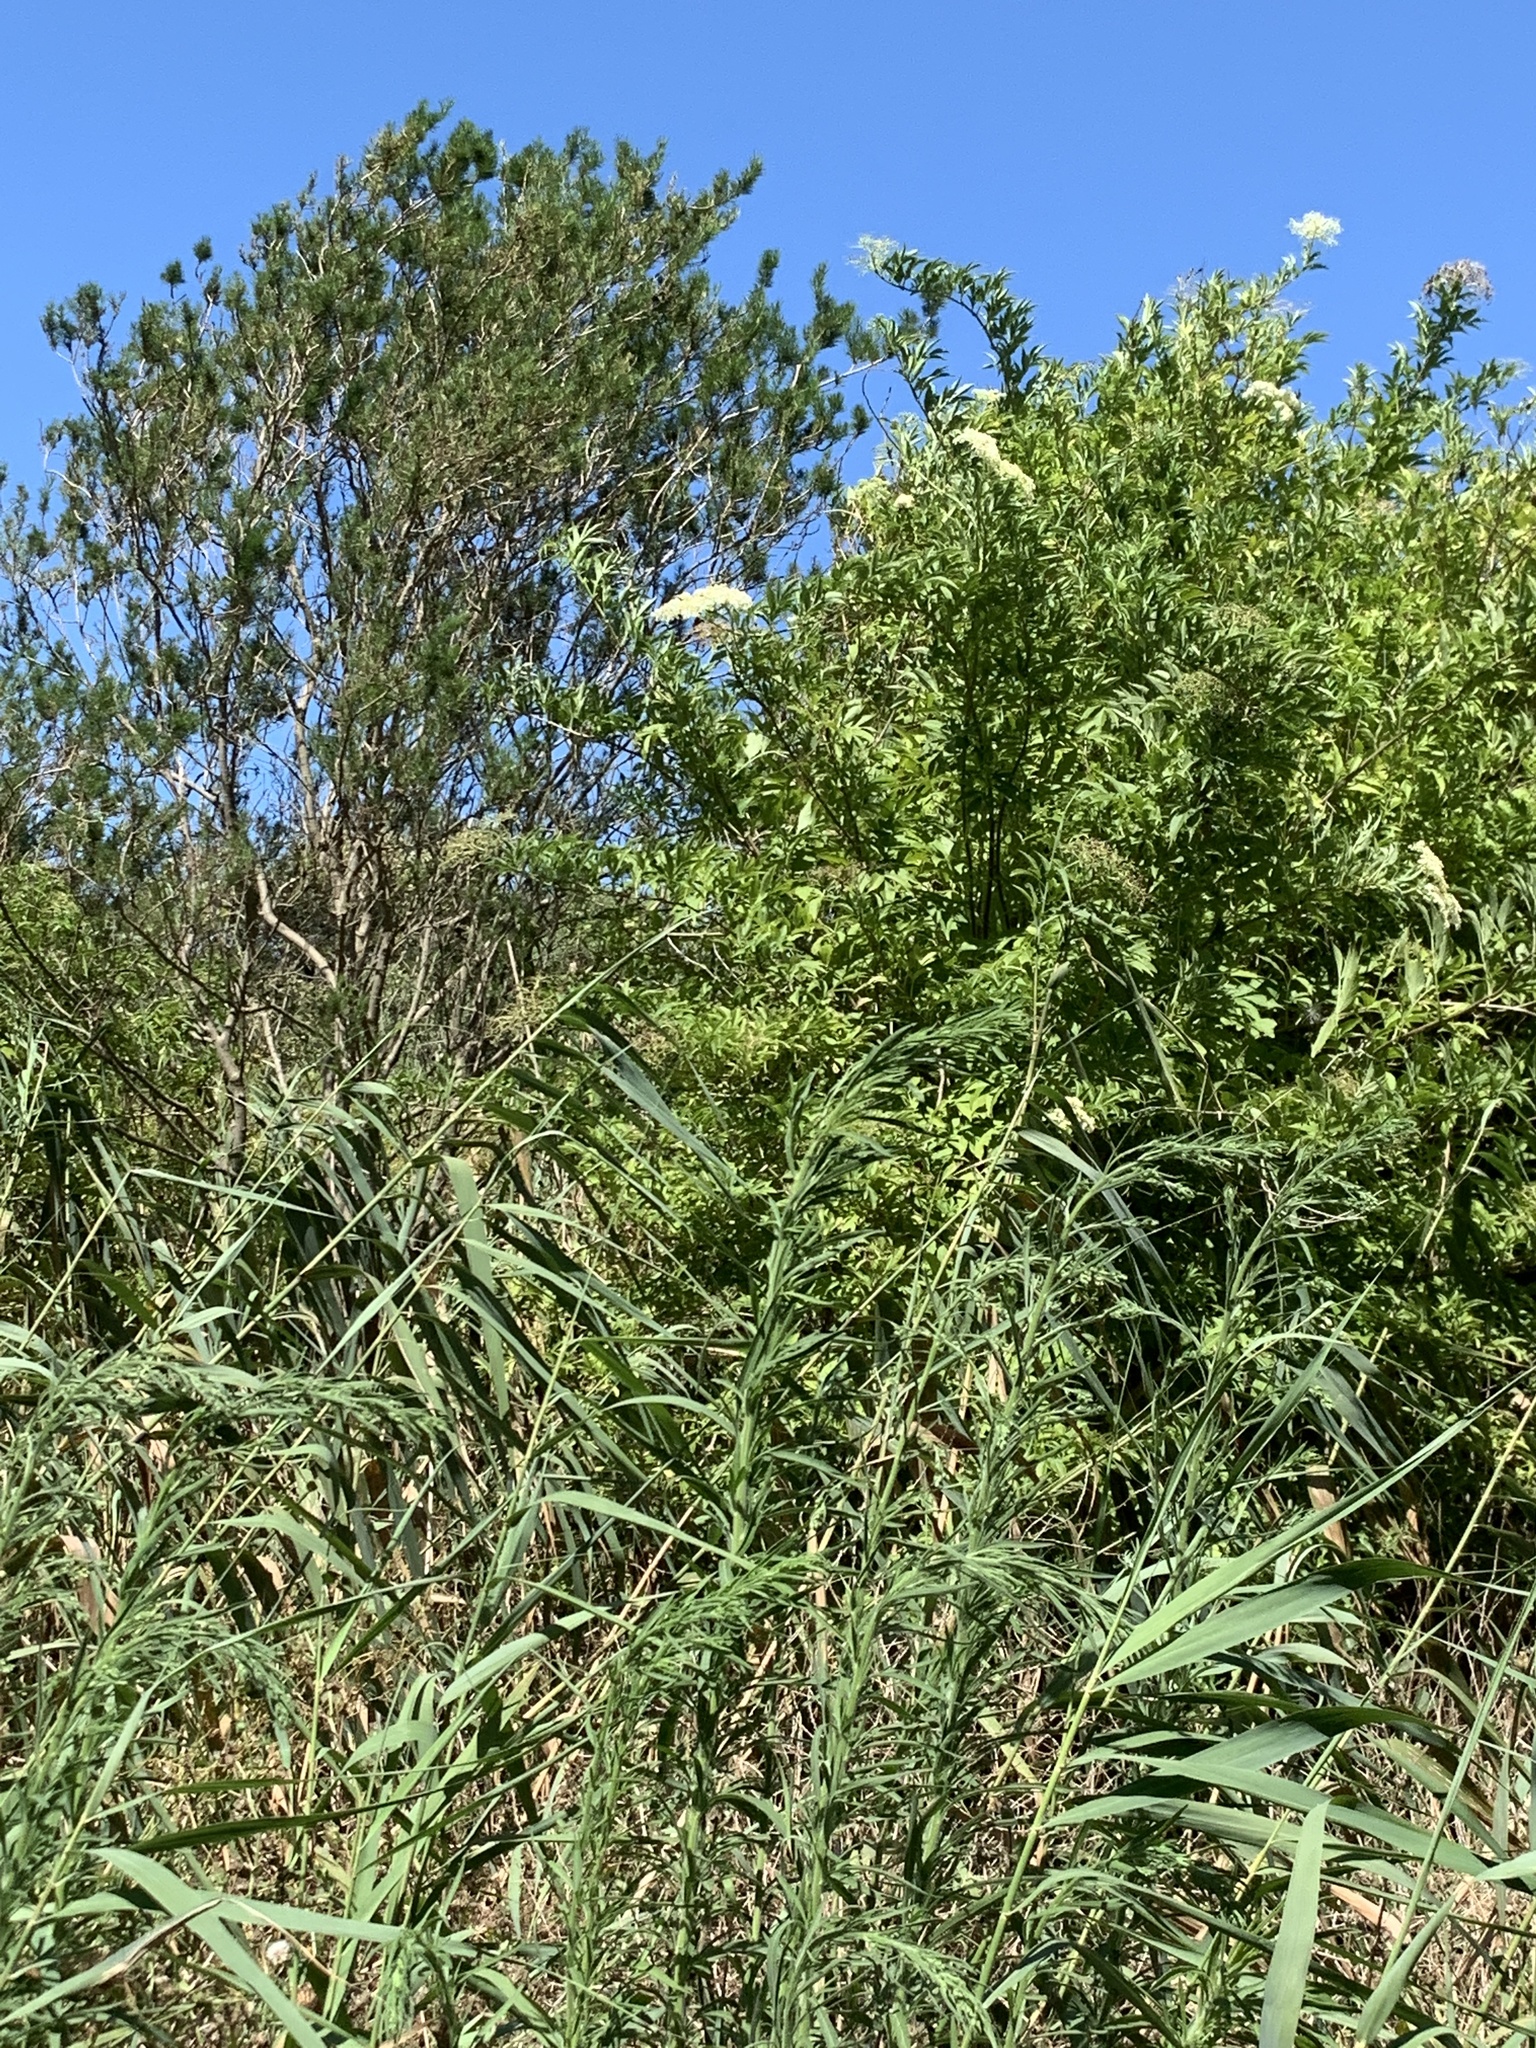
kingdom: Plantae
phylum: Tracheophyta
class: Magnoliopsida
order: Dipsacales
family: Viburnaceae
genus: Sambucus
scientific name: Sambucus nigra
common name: Elder
